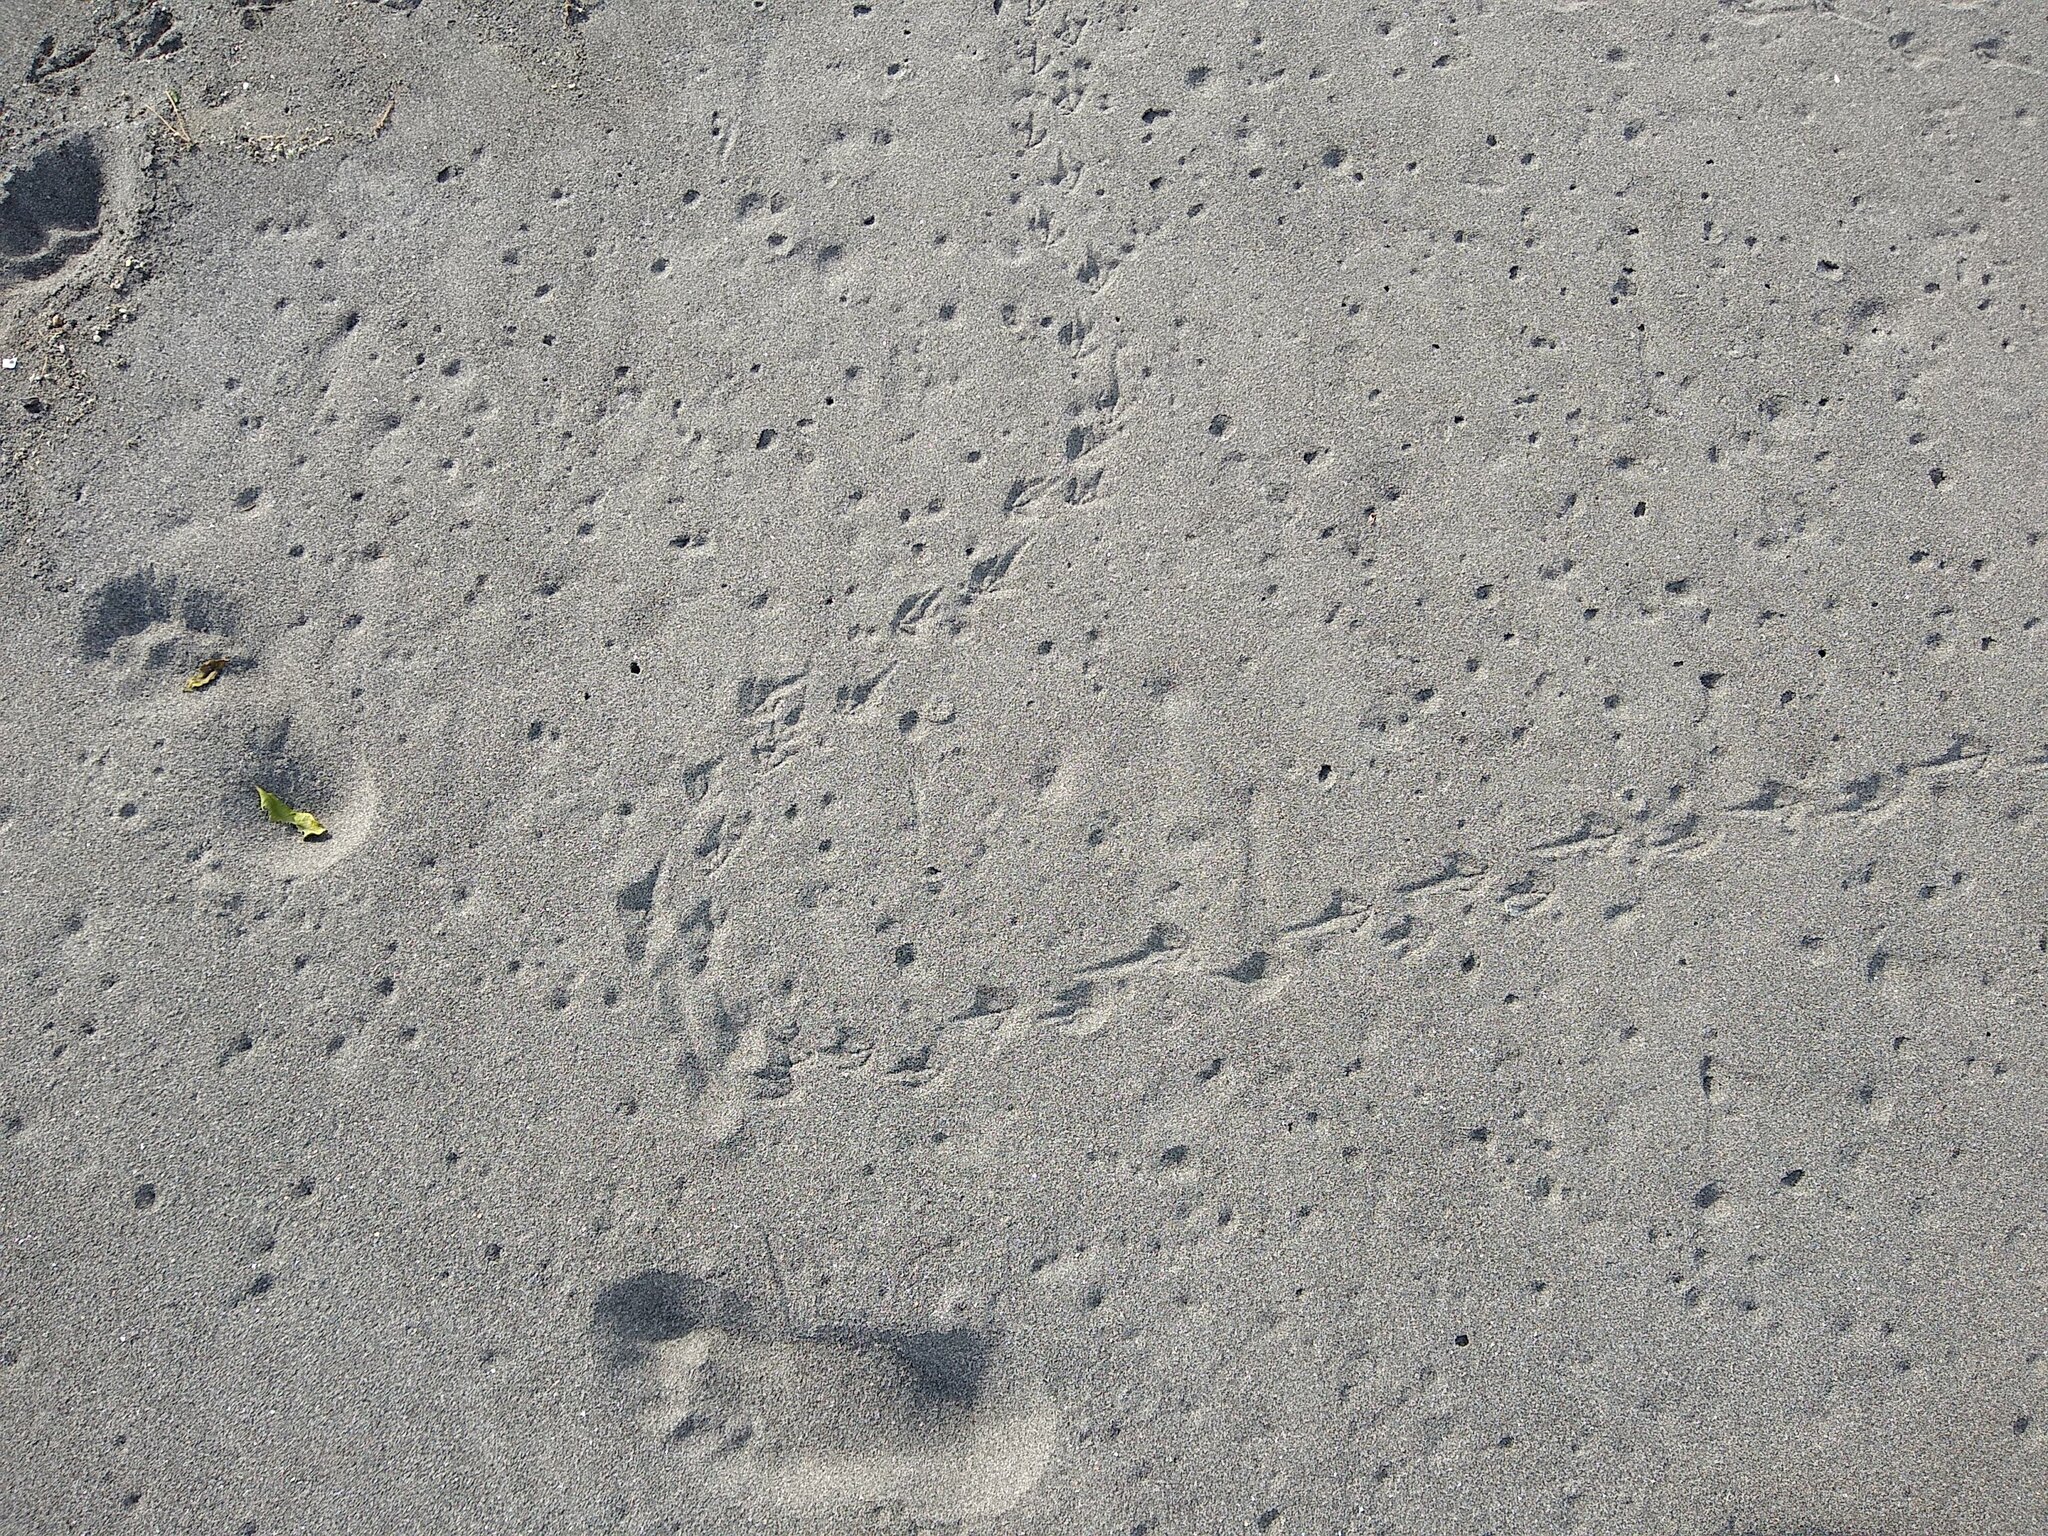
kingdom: Animalia
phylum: Chordata
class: Aves
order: Charadriiformes
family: Laridae
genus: Sterna
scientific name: Sterna striata
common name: White-fronted tern
